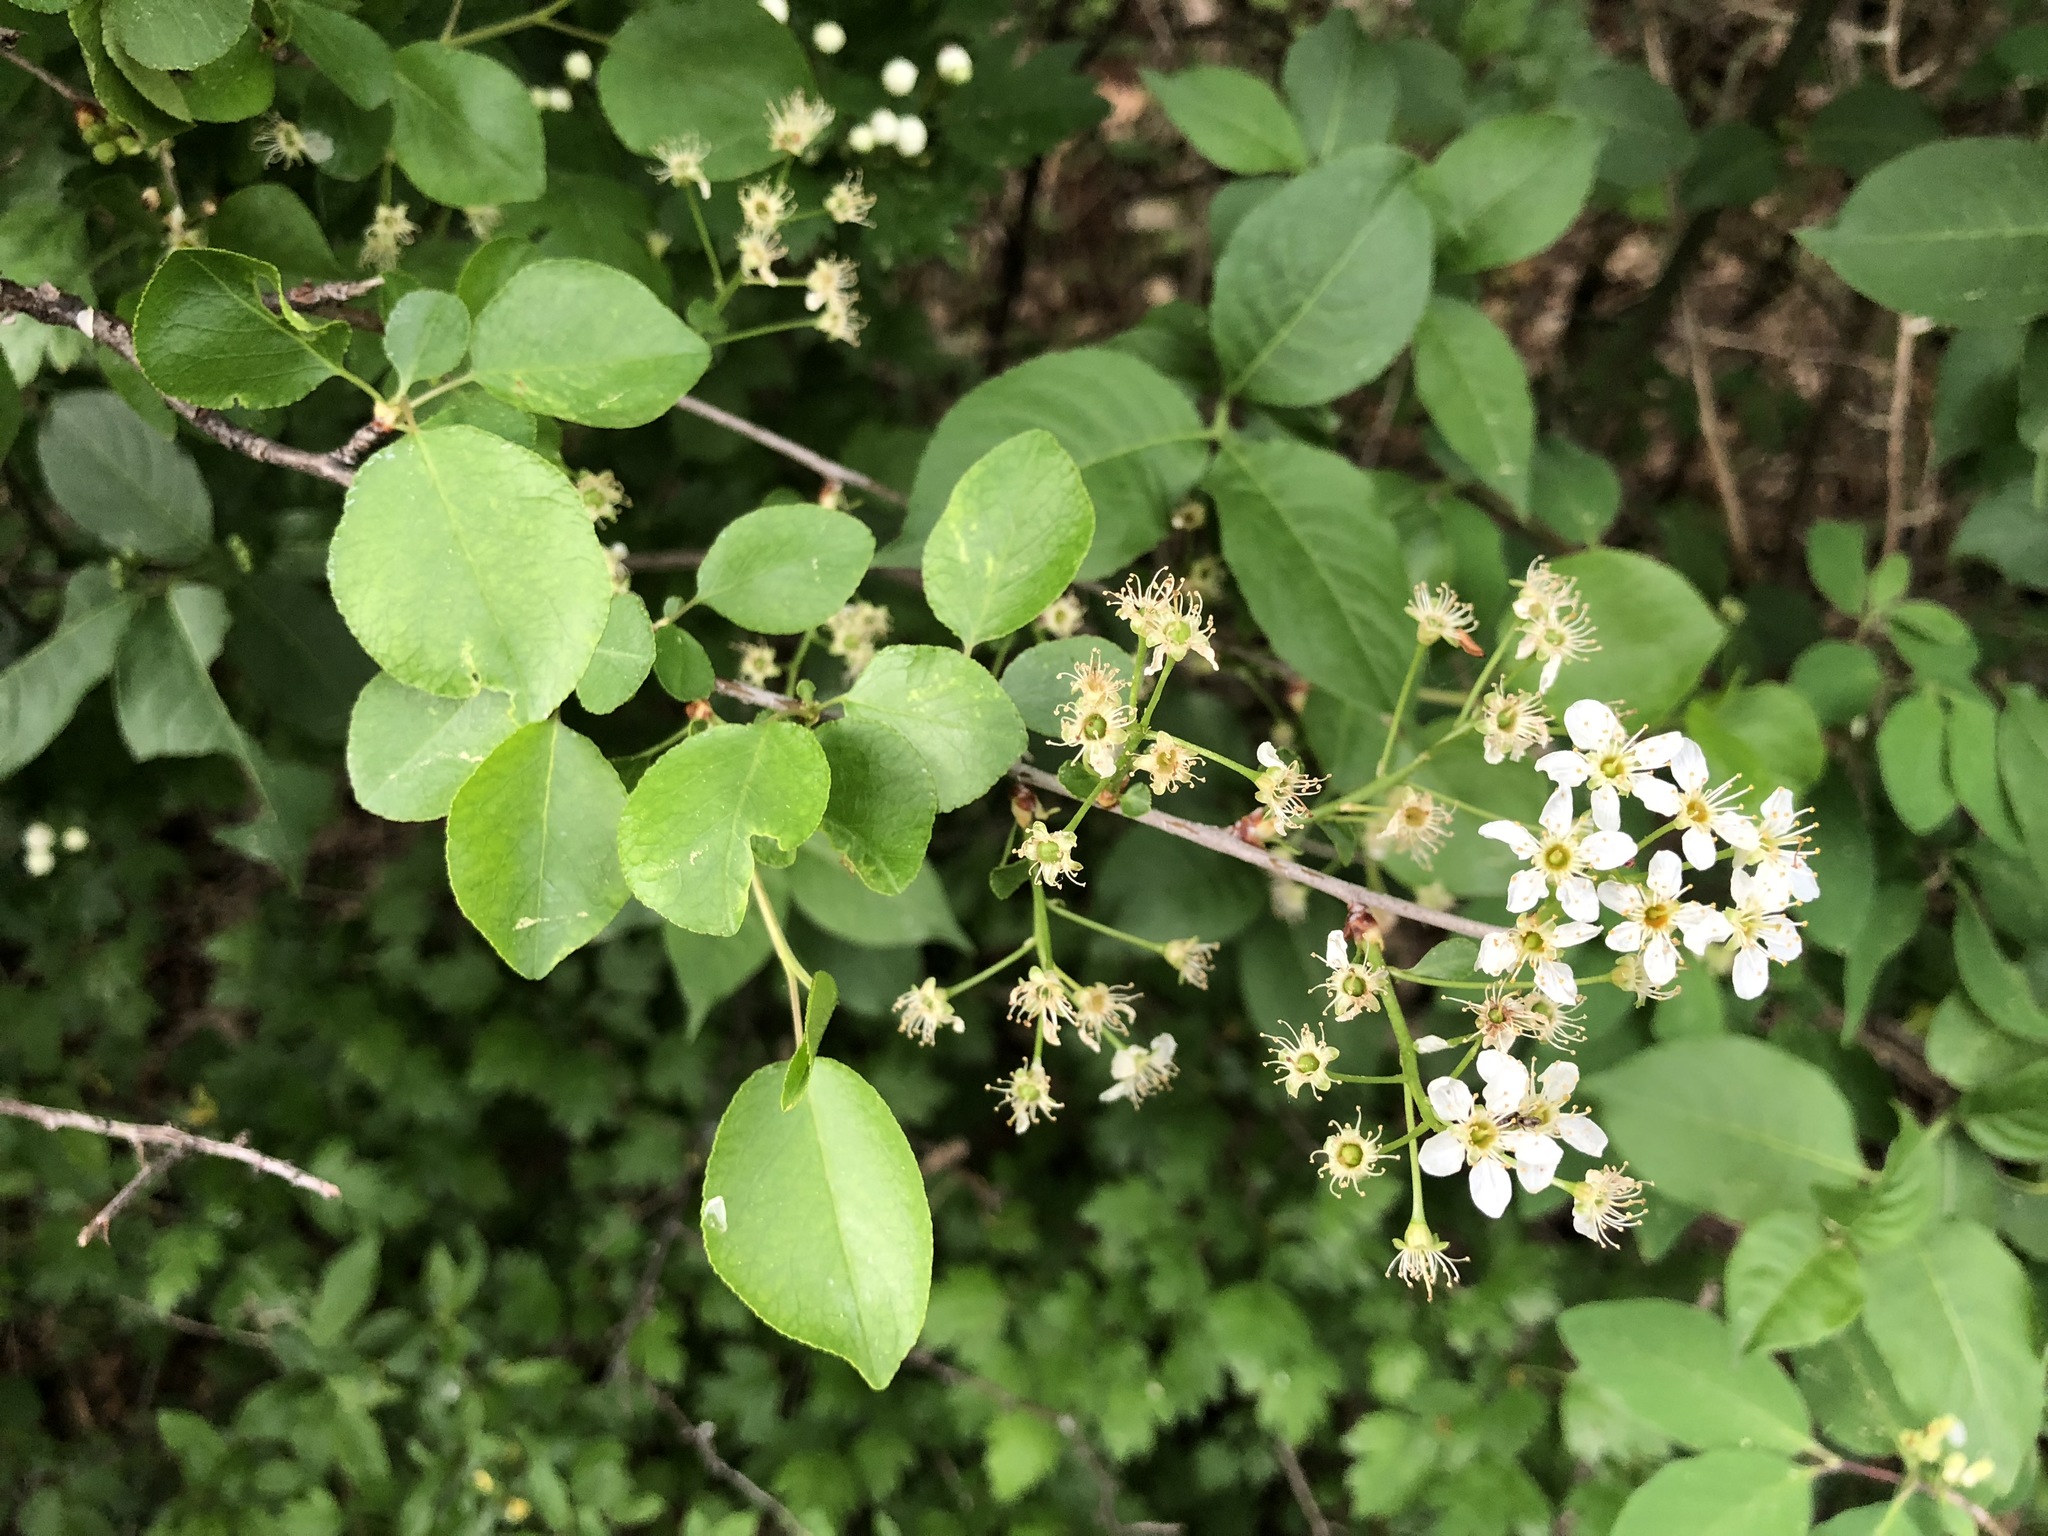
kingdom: Plantae
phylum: Tracheophyta
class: Magnoliopsida
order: Rosales
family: Rosaceae
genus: Prunus
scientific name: Prunus mahaleb
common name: Mahaleb cherry
